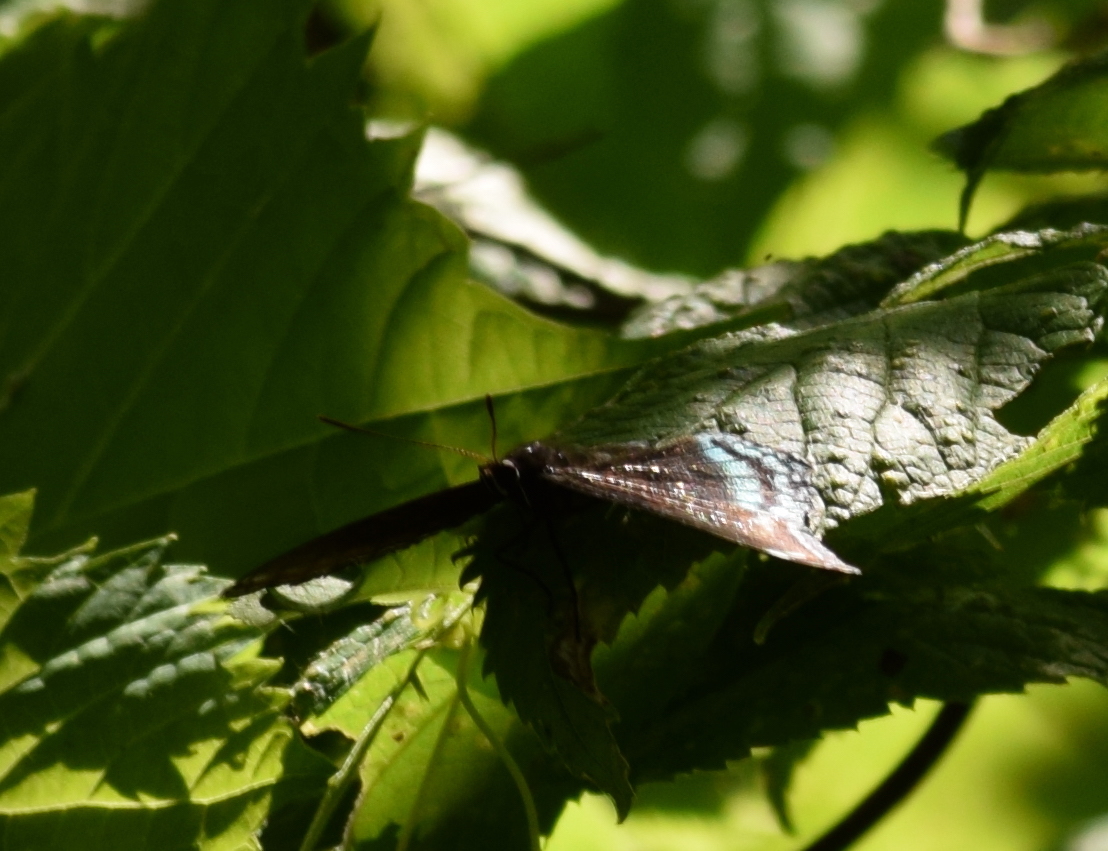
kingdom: Animalia
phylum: Arthropoda
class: Insecta
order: Lepidoptera
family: Nymphalidae
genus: Limenitis
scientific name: Limenitis arthemis
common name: Red-spotted admiral
